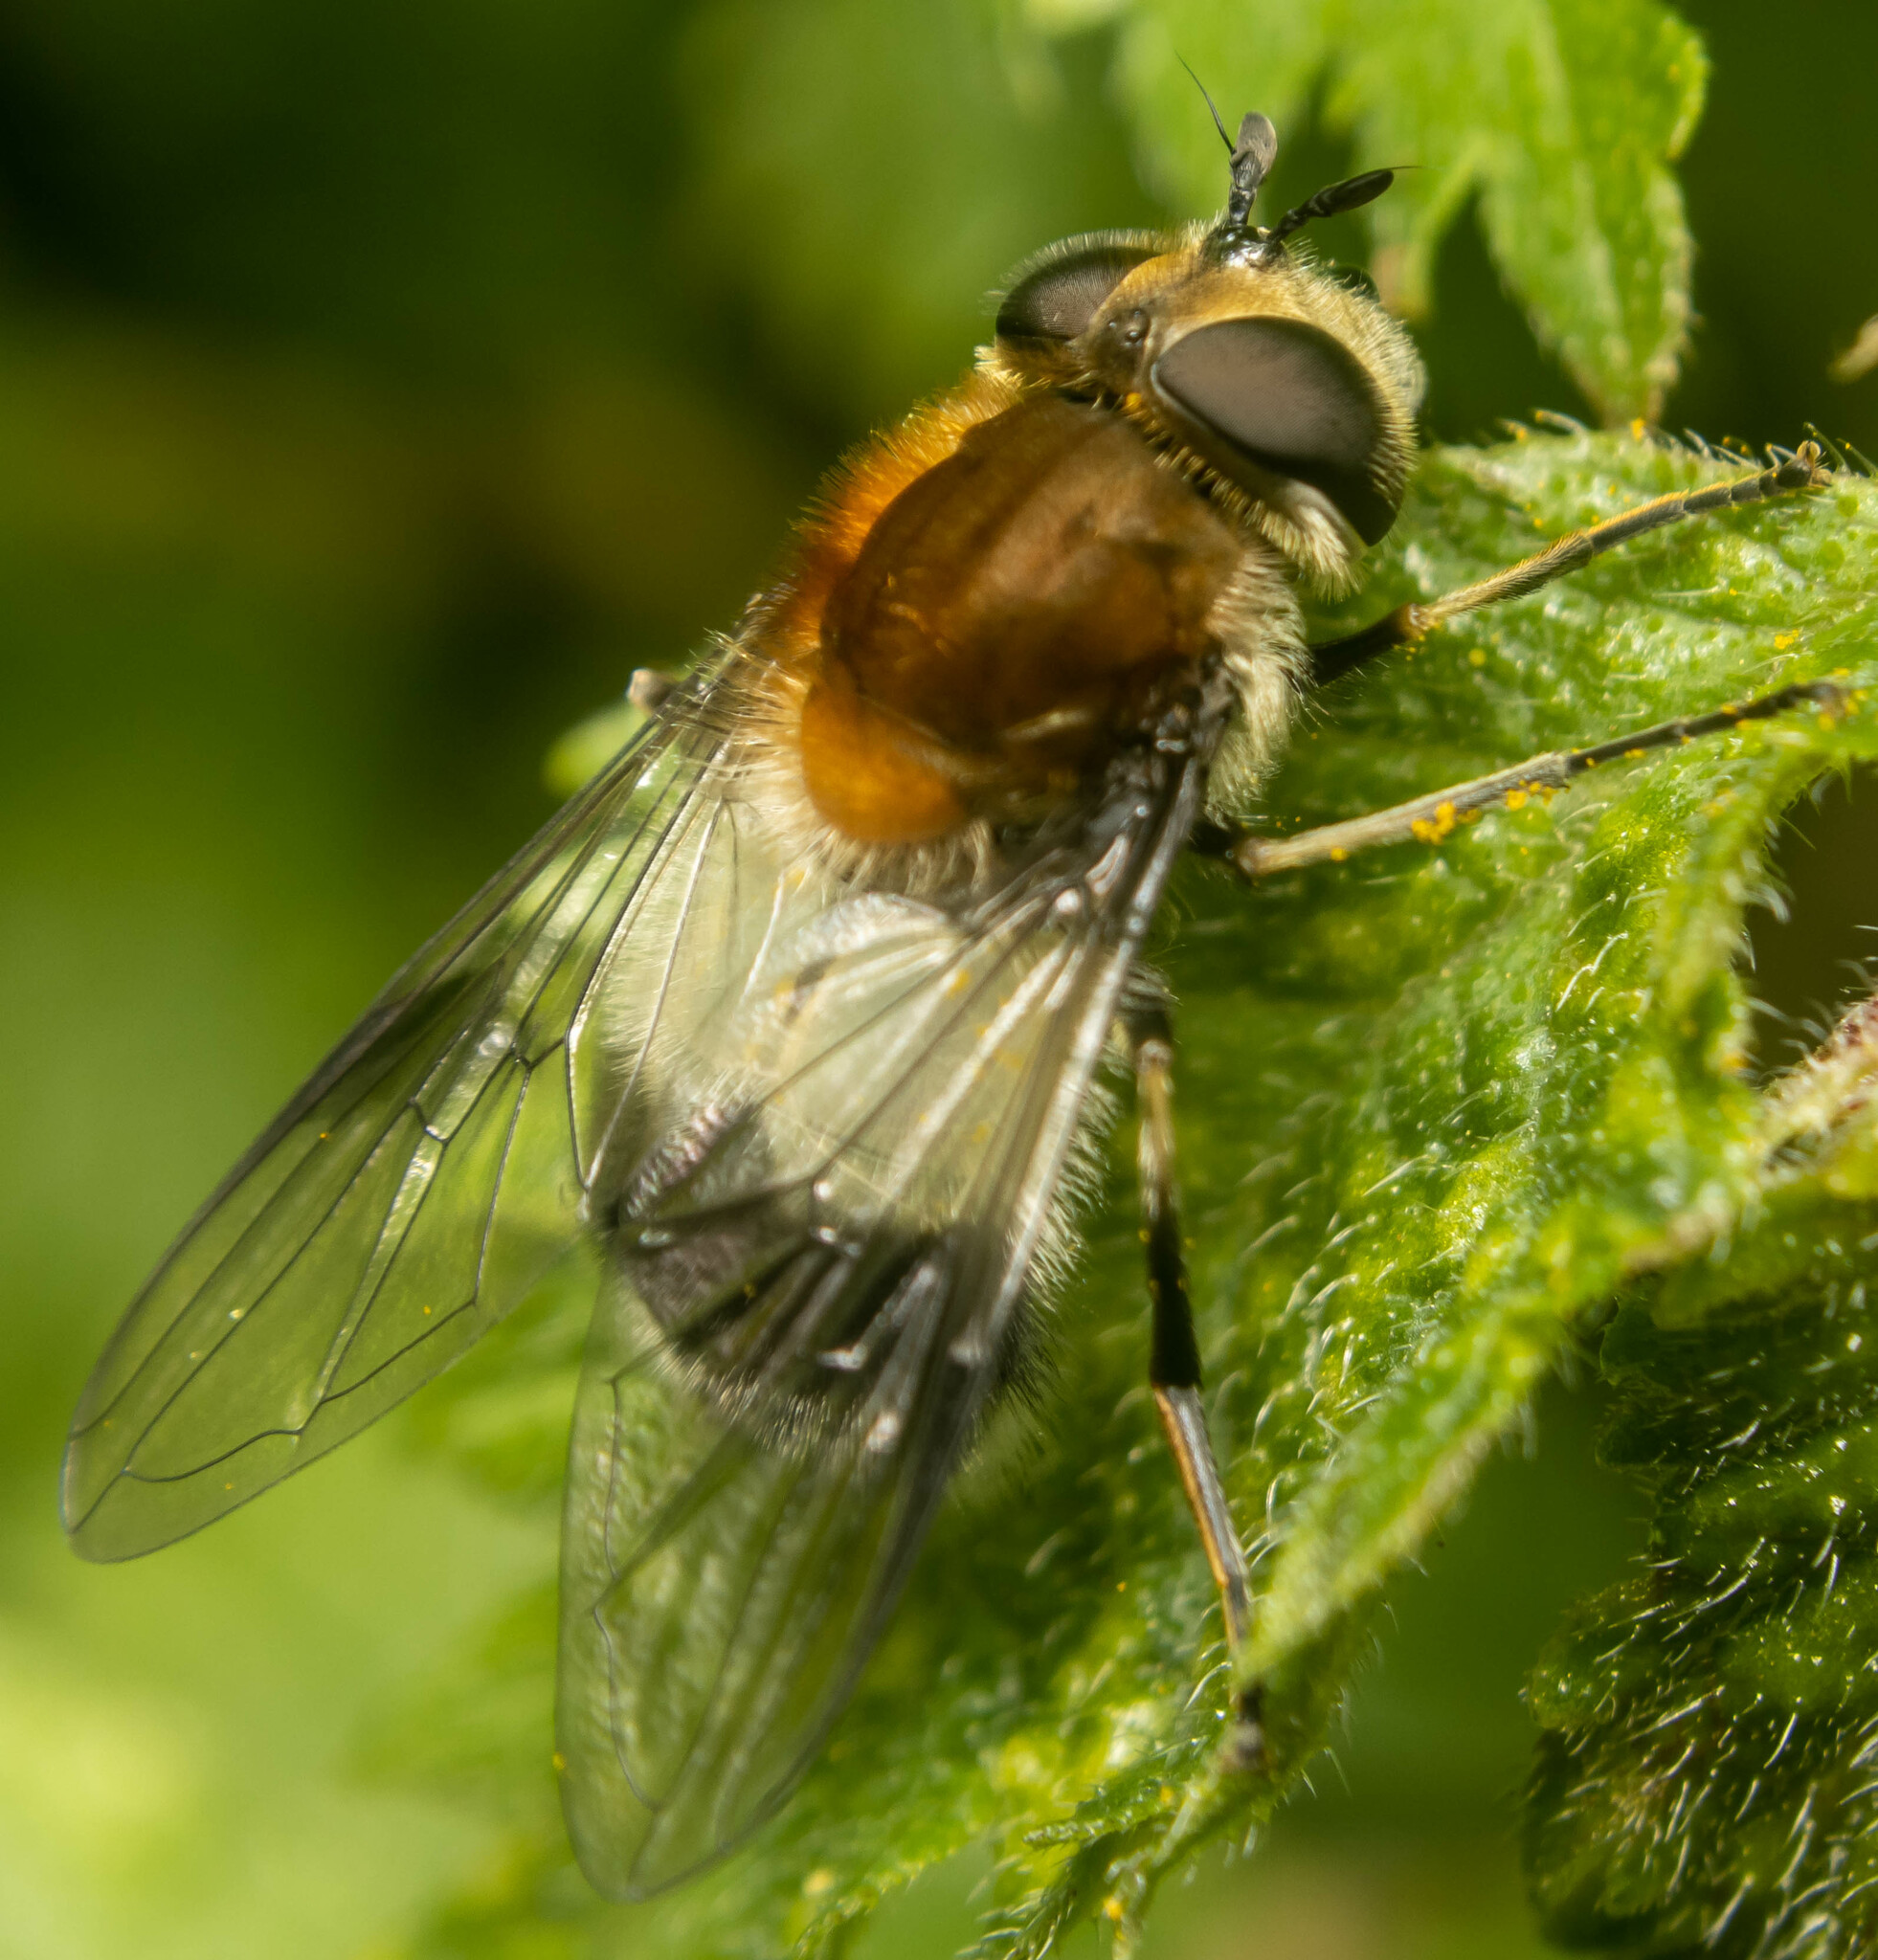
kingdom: Animalia
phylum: Arthropoda
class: Insecta
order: Diptera
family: Syrphidae
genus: Leucozona
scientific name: Leucozona lucorum
